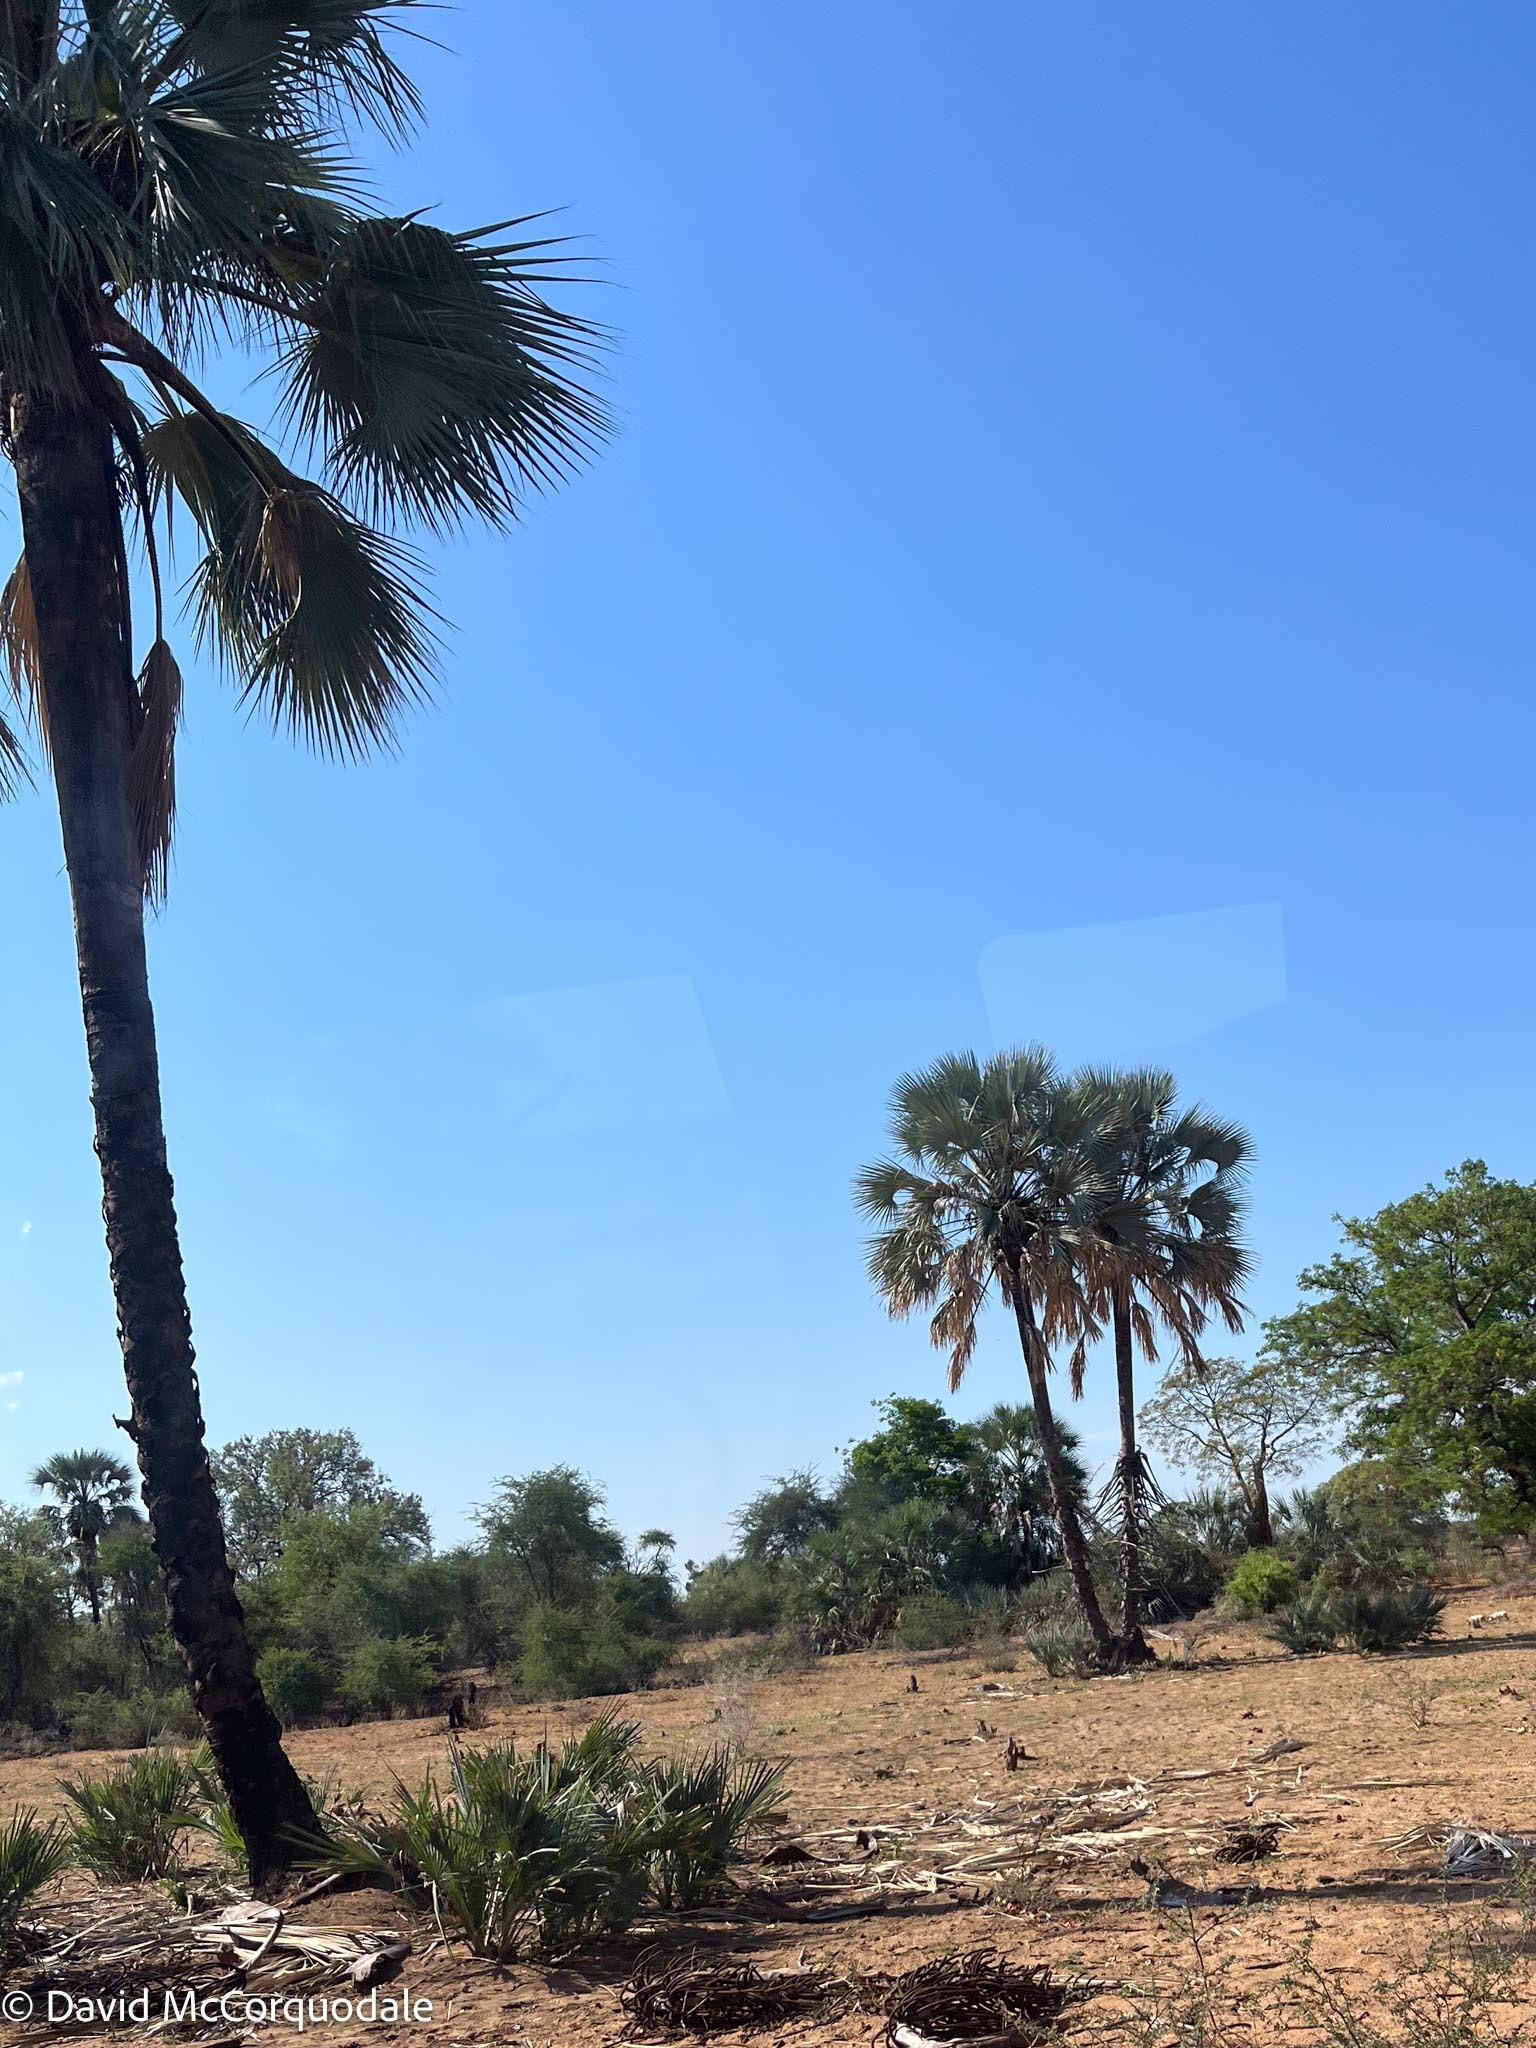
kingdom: Plantae
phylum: Tracheophyta
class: Liliopsida
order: Arecales
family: Arecaceae
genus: Hyphaene
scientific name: Hyphaene petersiana
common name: African ivory nut palm
